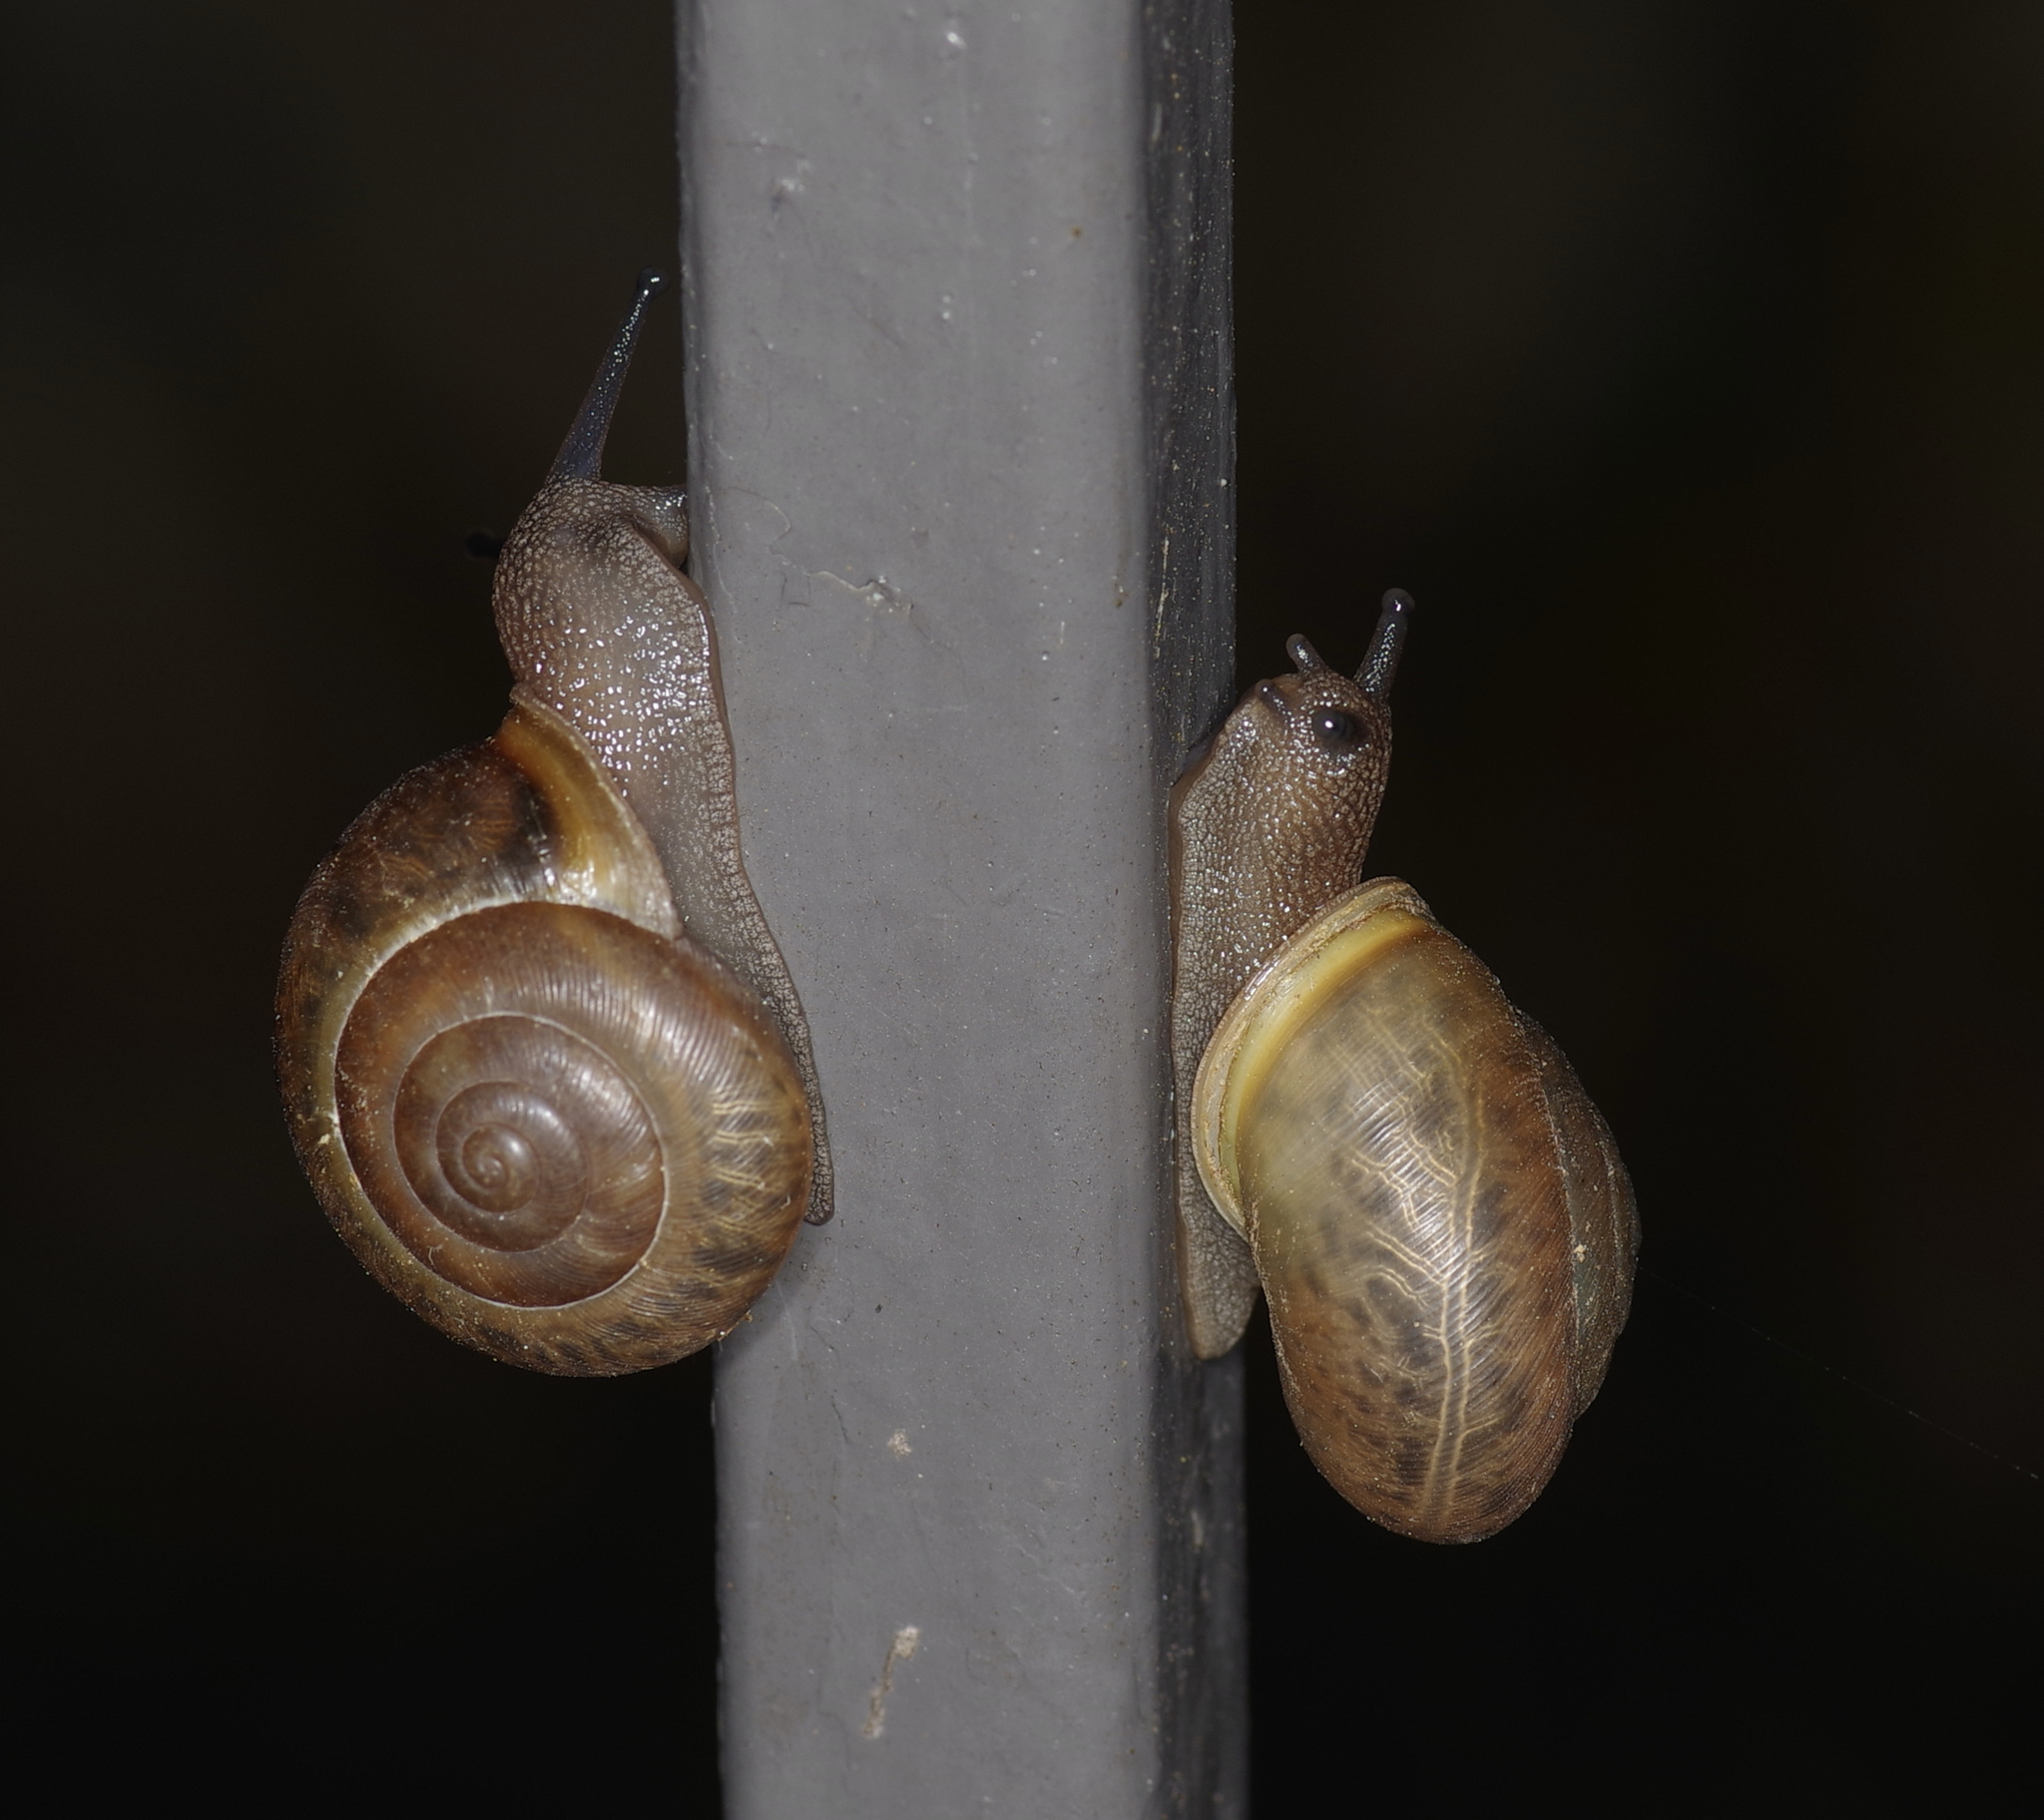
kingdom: Animalia
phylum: Mollusca
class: Gastropoda
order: Stylommatophora
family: Polygyridae
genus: Mesodon
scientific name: Mesodon thyroidus
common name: White-lip globe
